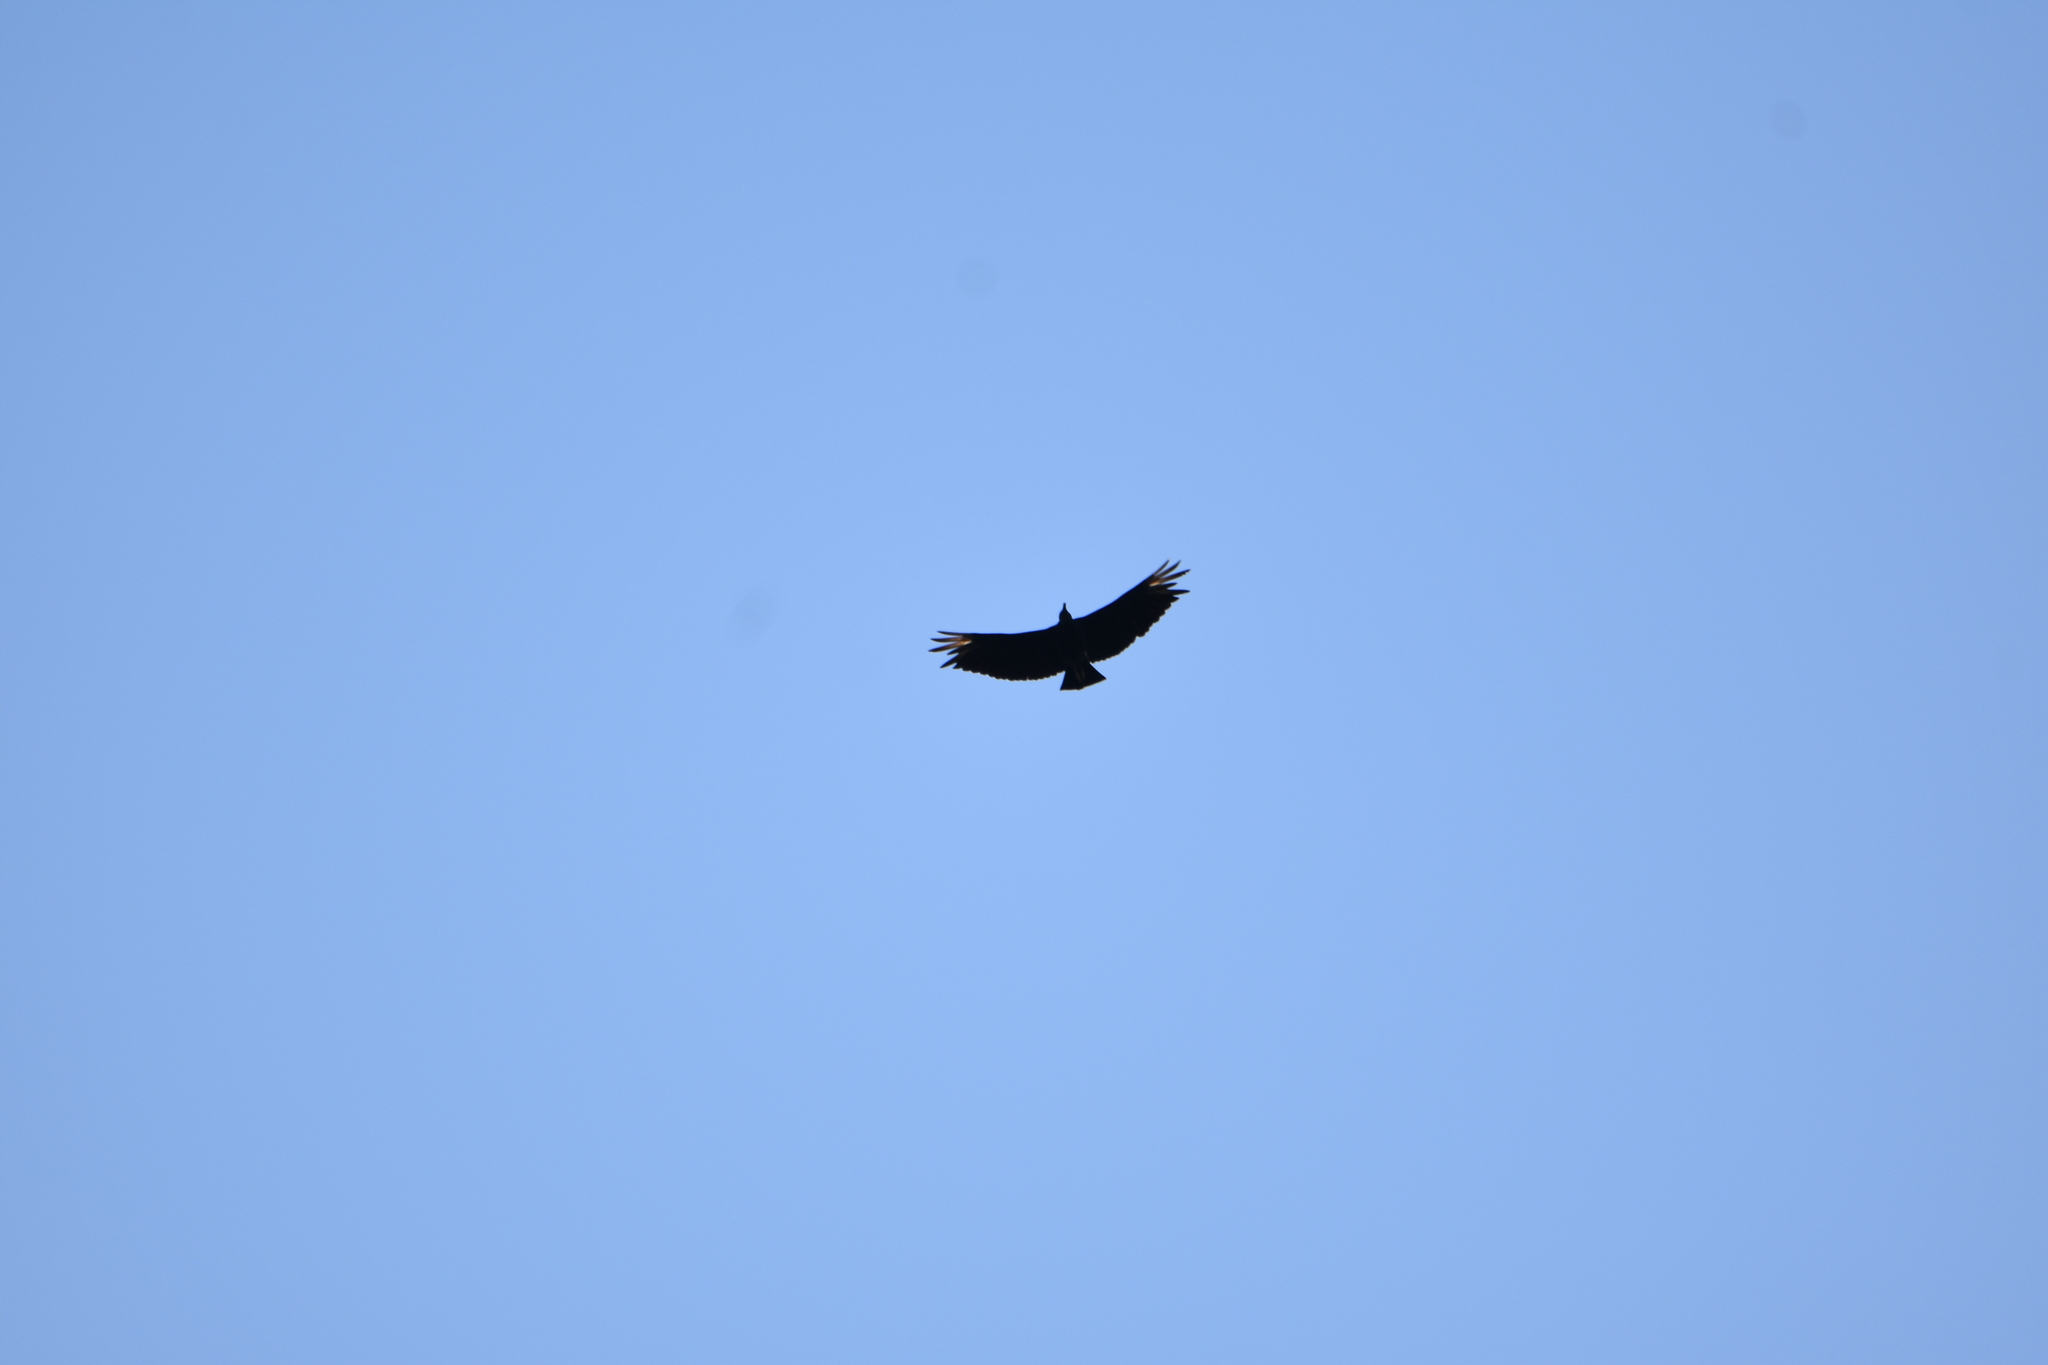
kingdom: Animalia
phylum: Chordata
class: Aves
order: Accipitriformes
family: Cathartidae
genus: Coragyps
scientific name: Coragyps atratus
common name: Black vulture
